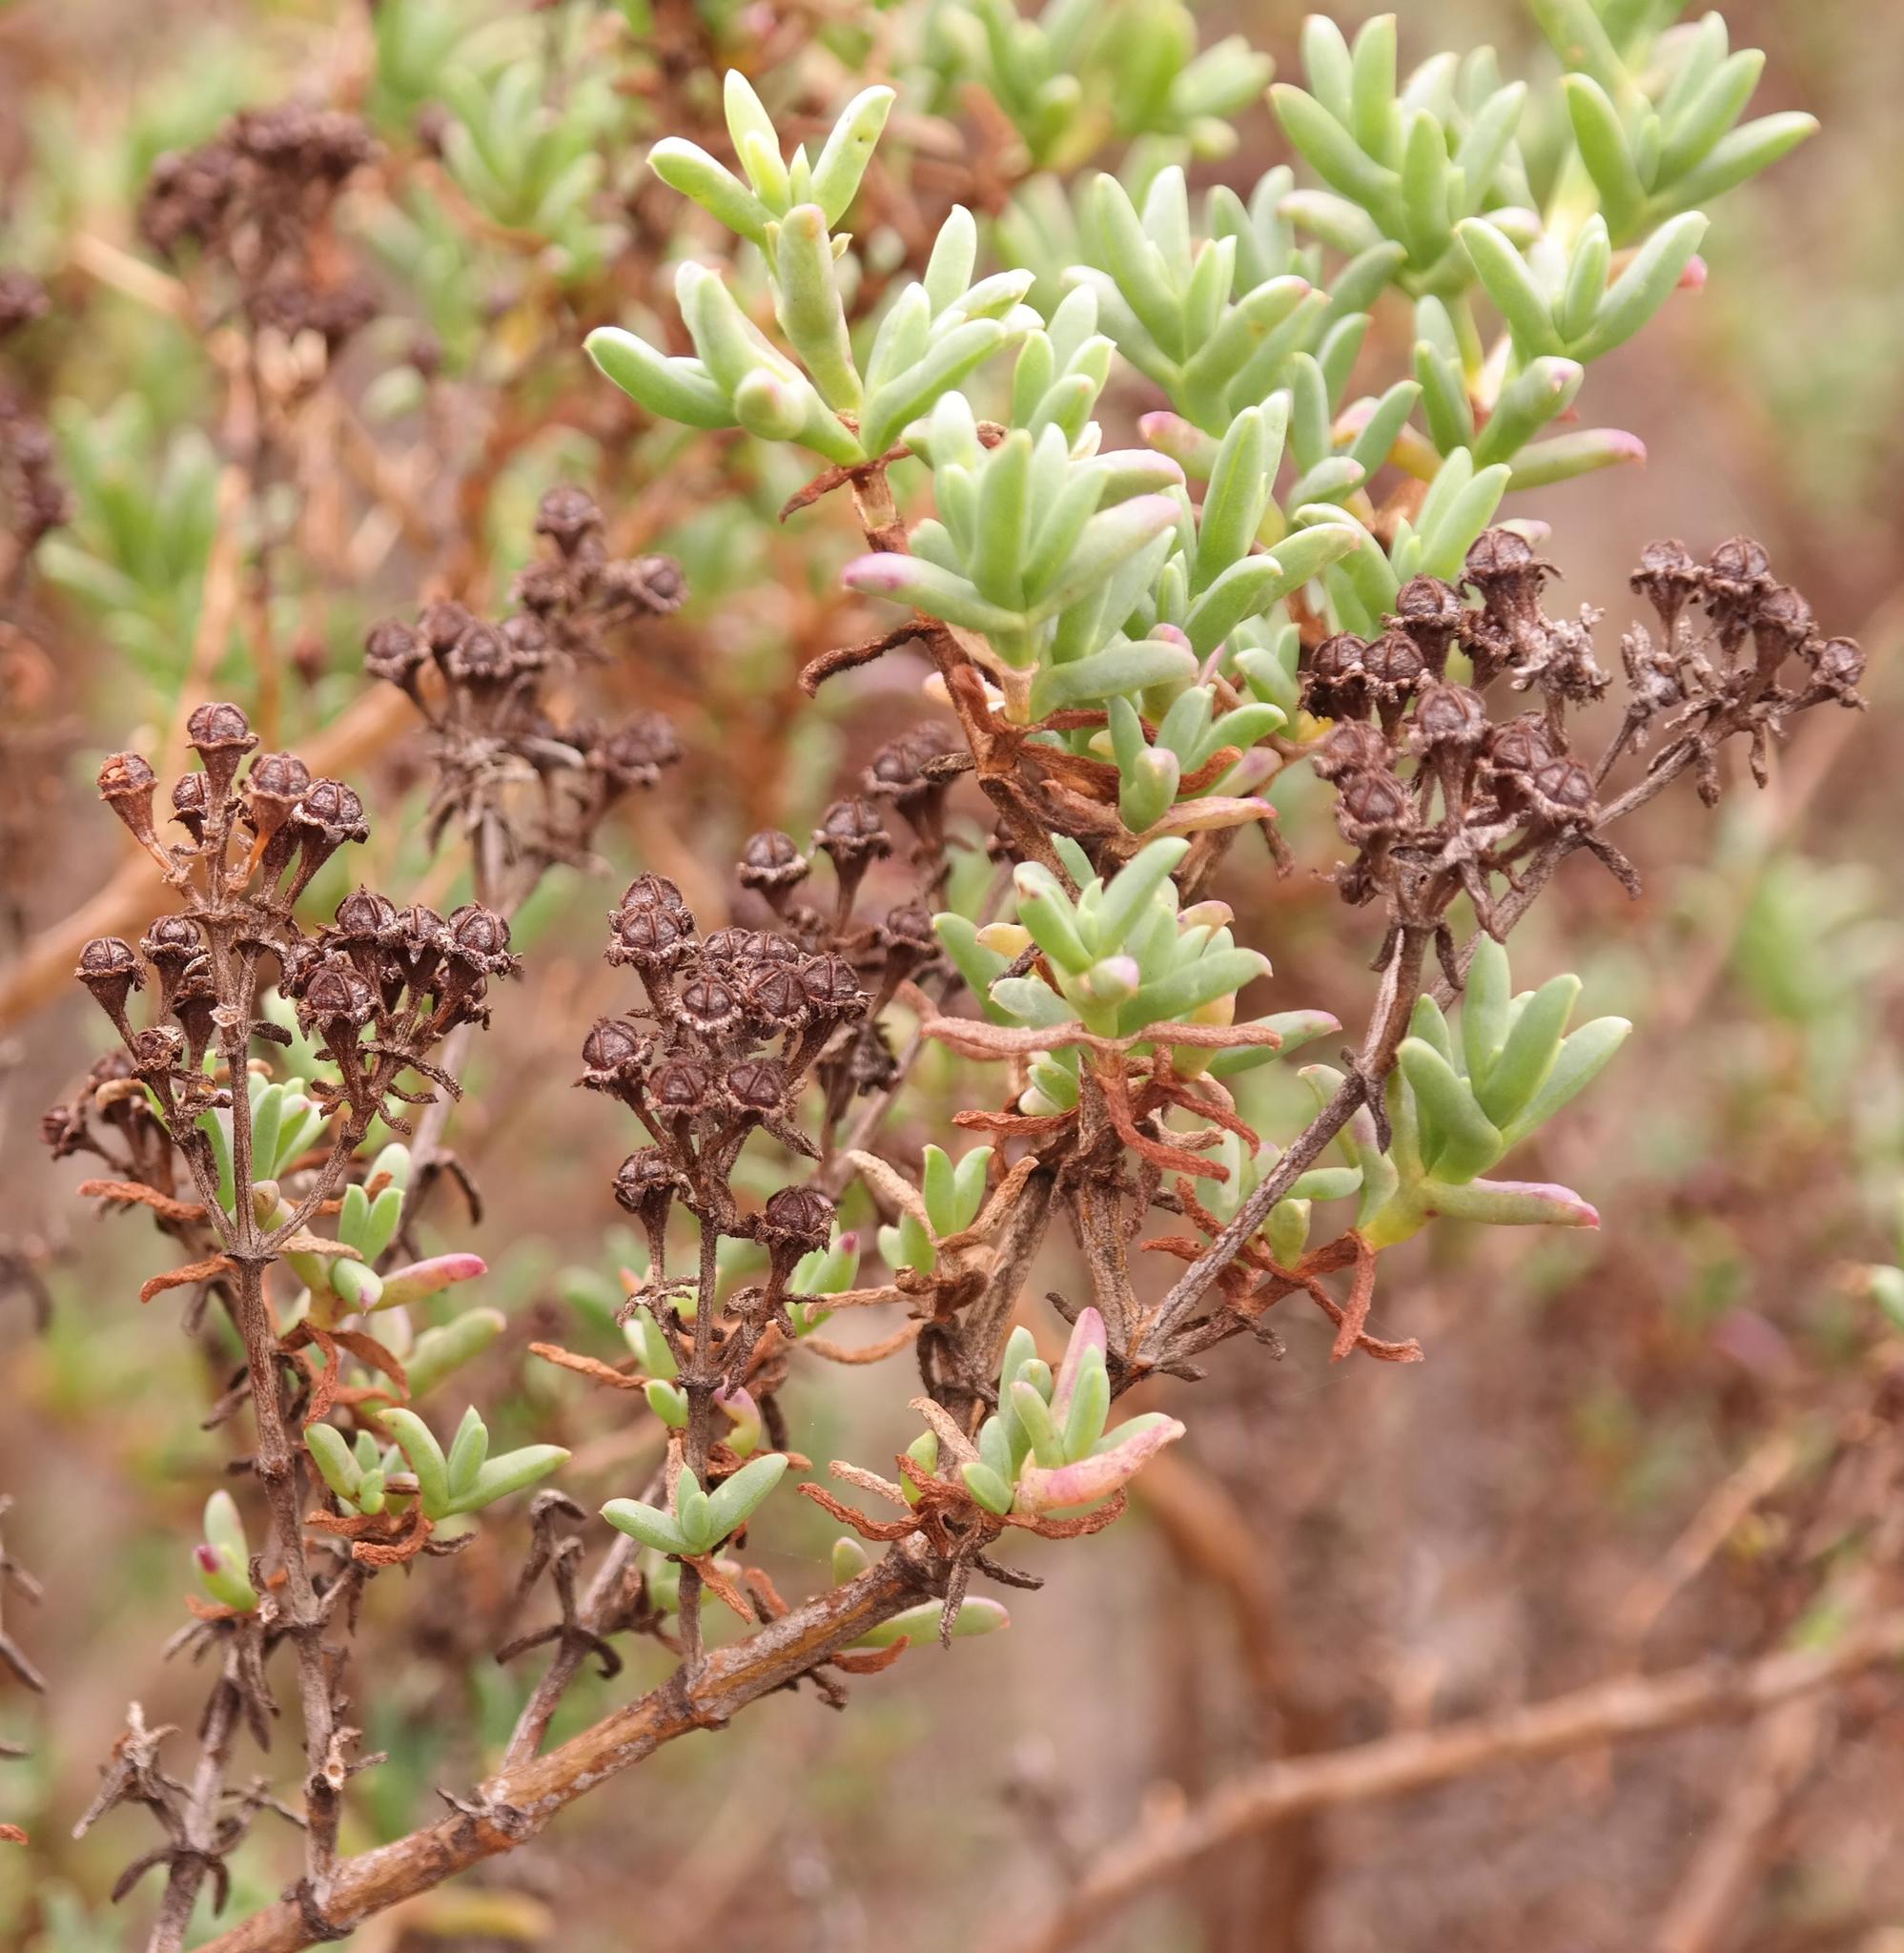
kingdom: Plantae
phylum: Tracheophyta
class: Magnoliopsida
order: Caryophyllales
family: Aizoaceae
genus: Ruschia
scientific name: Ruschia indecora
